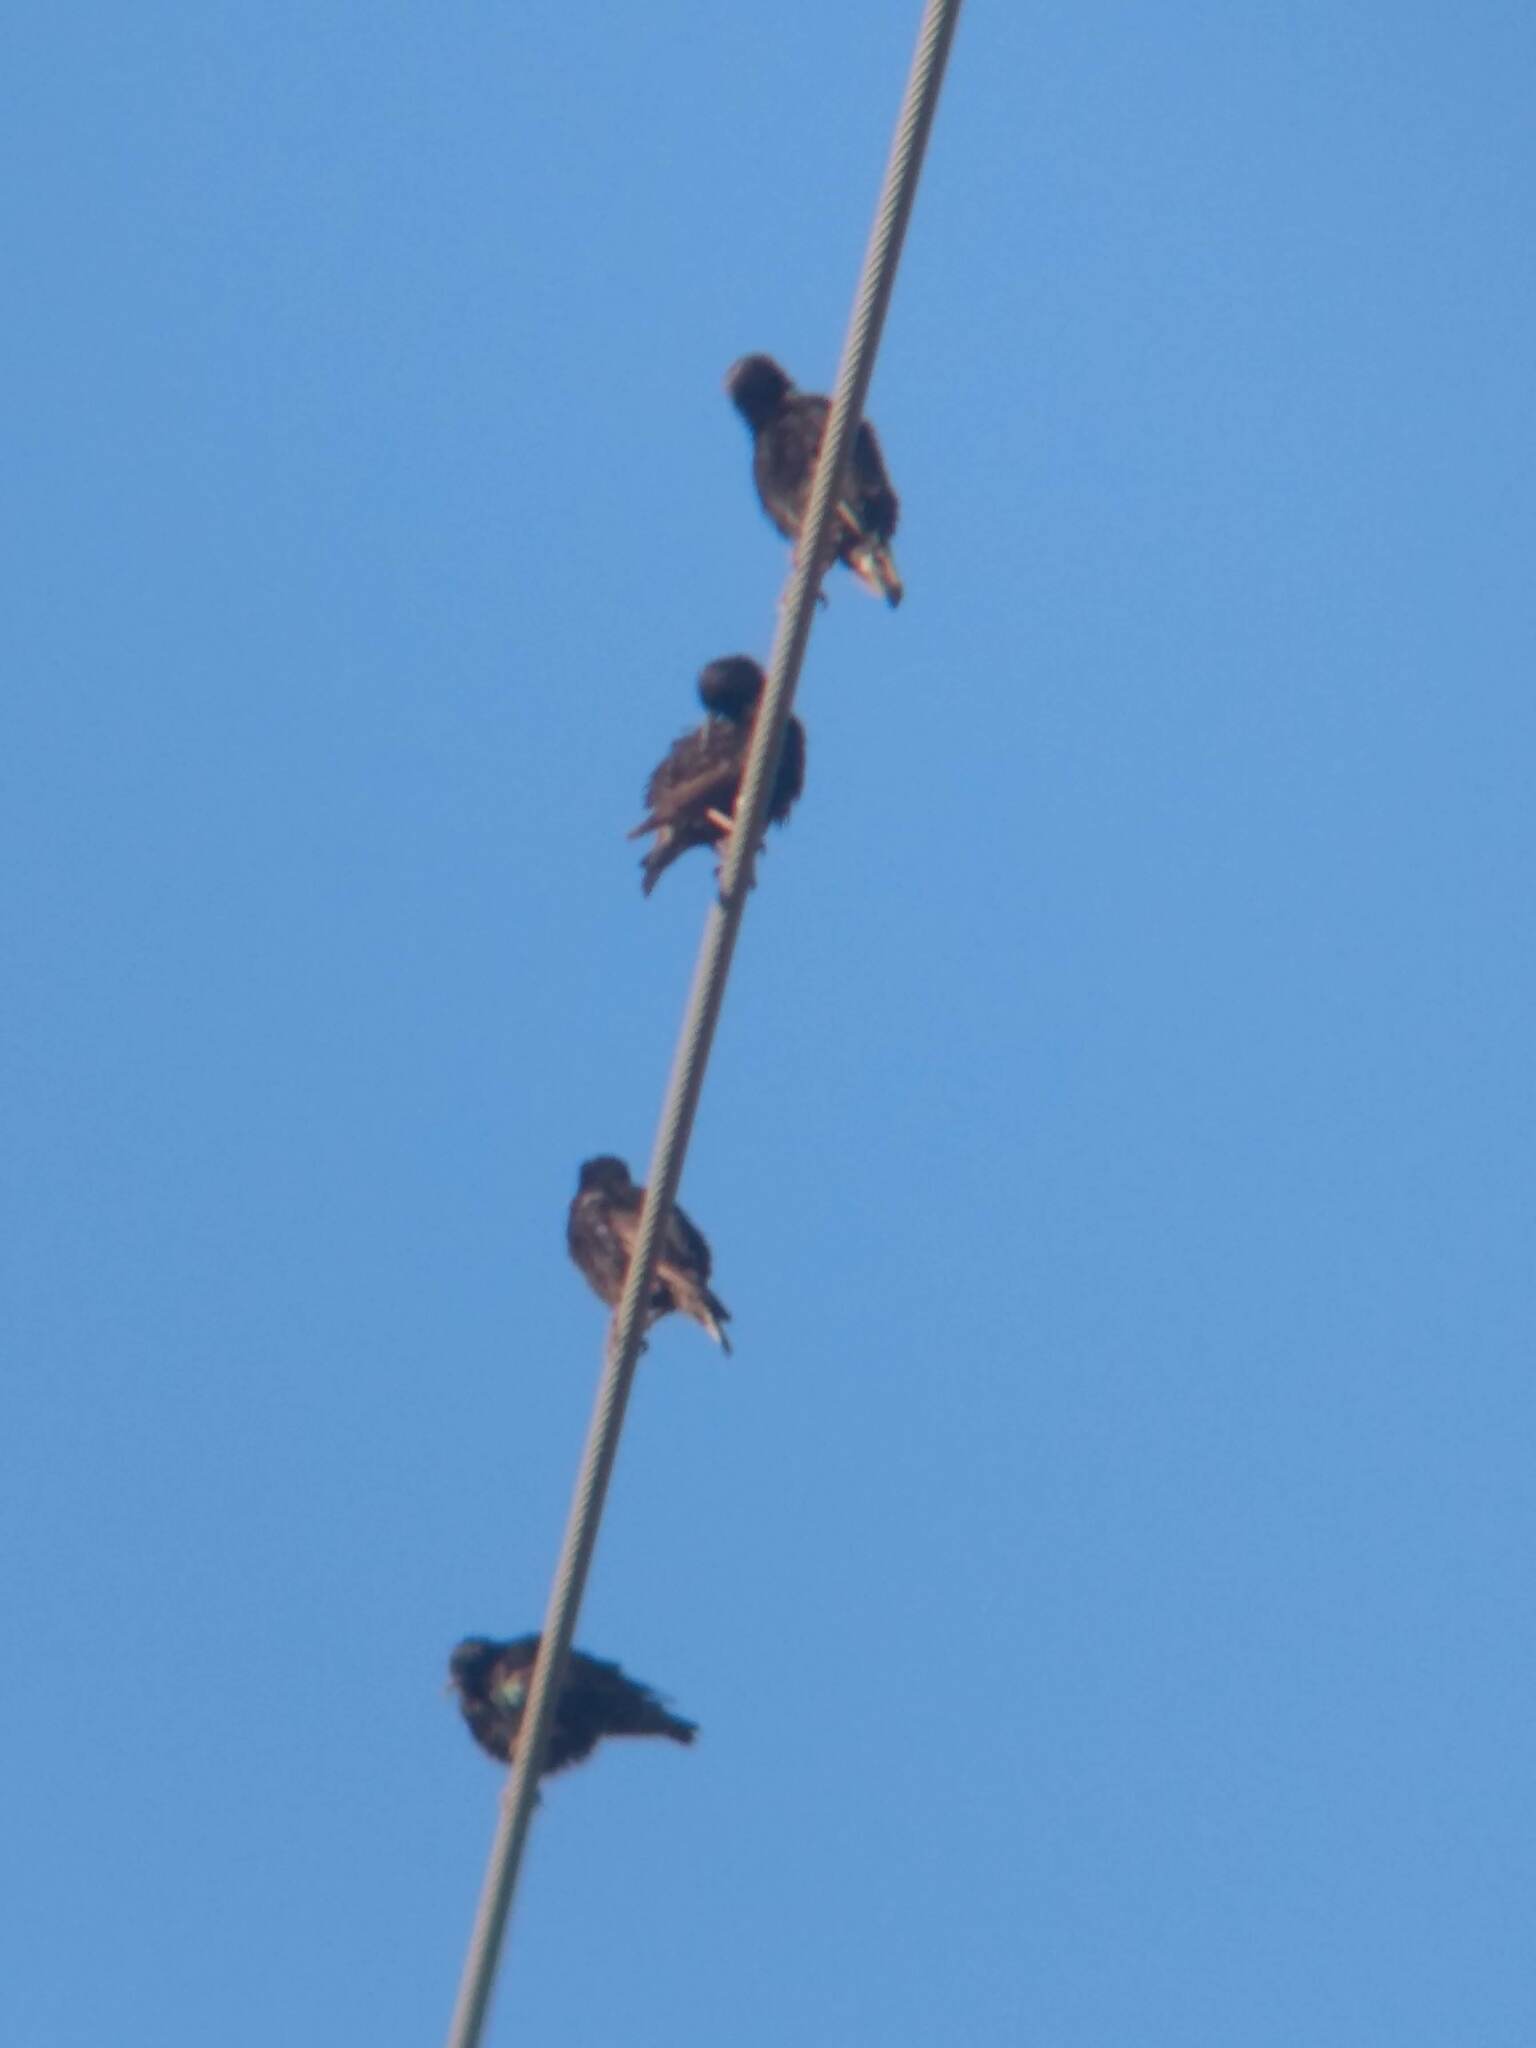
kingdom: Animalia
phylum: Chordata
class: Aves
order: Passeriformes
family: Sturnidae
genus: Sturnus
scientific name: Sturnus vulgaris
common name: Common starling
